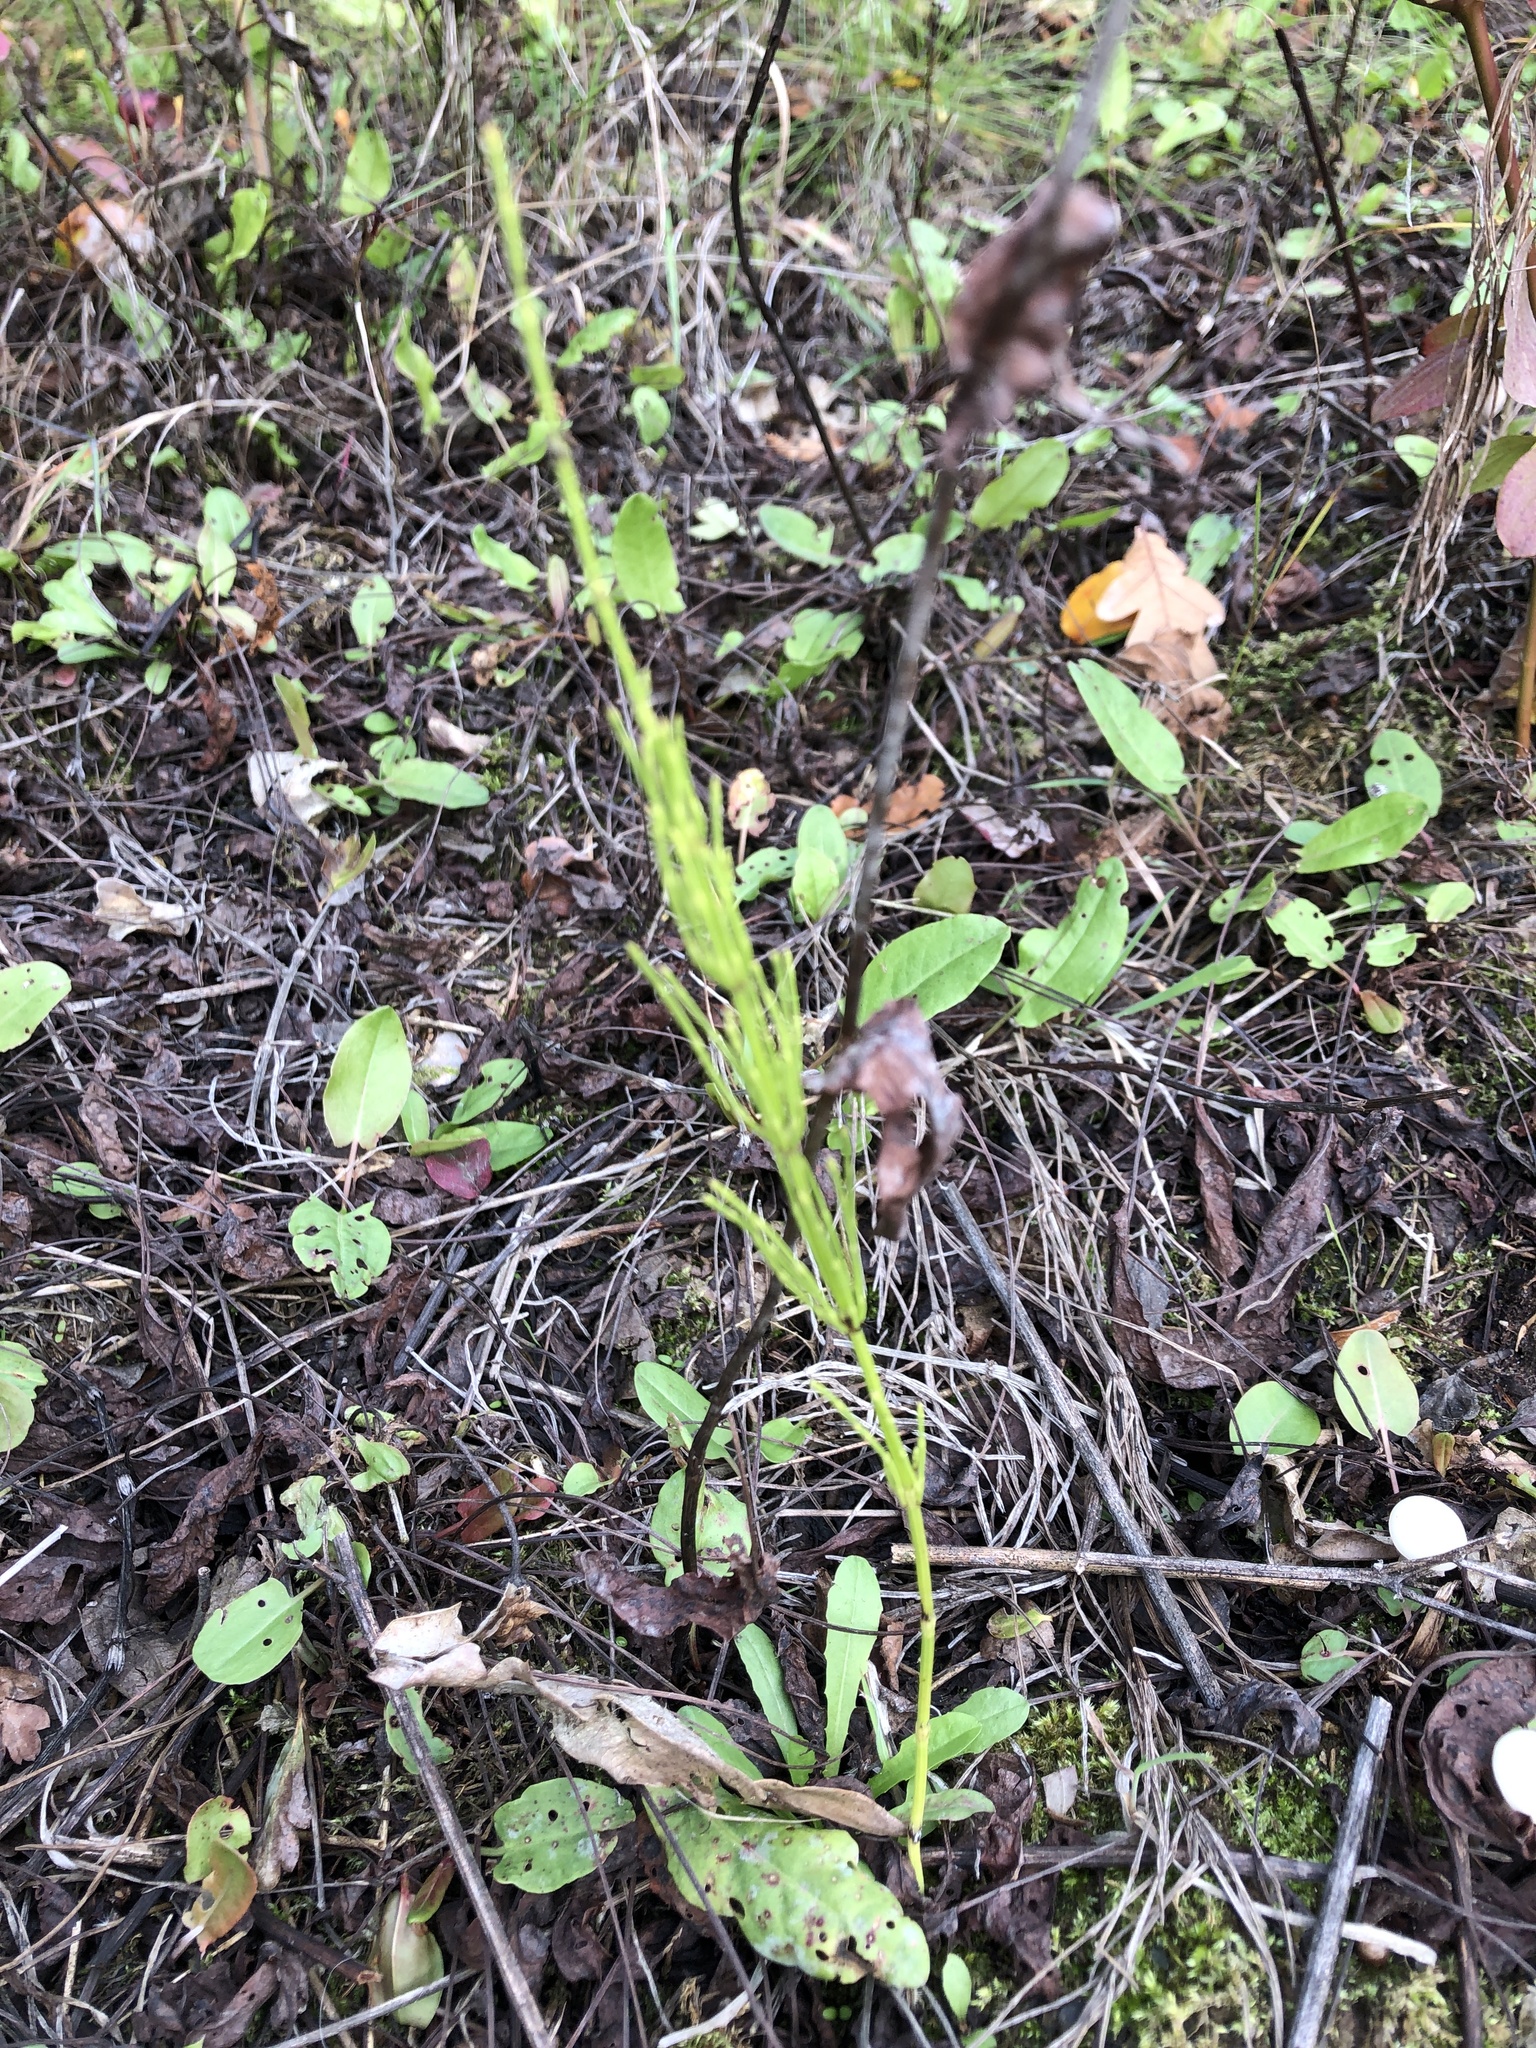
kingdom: Plantae
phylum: Tracheophyta
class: Polypodiopsida
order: Equisetales
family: Equisetaceae
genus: Equisetum
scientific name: Equisetum arvense
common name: Field horsetail
